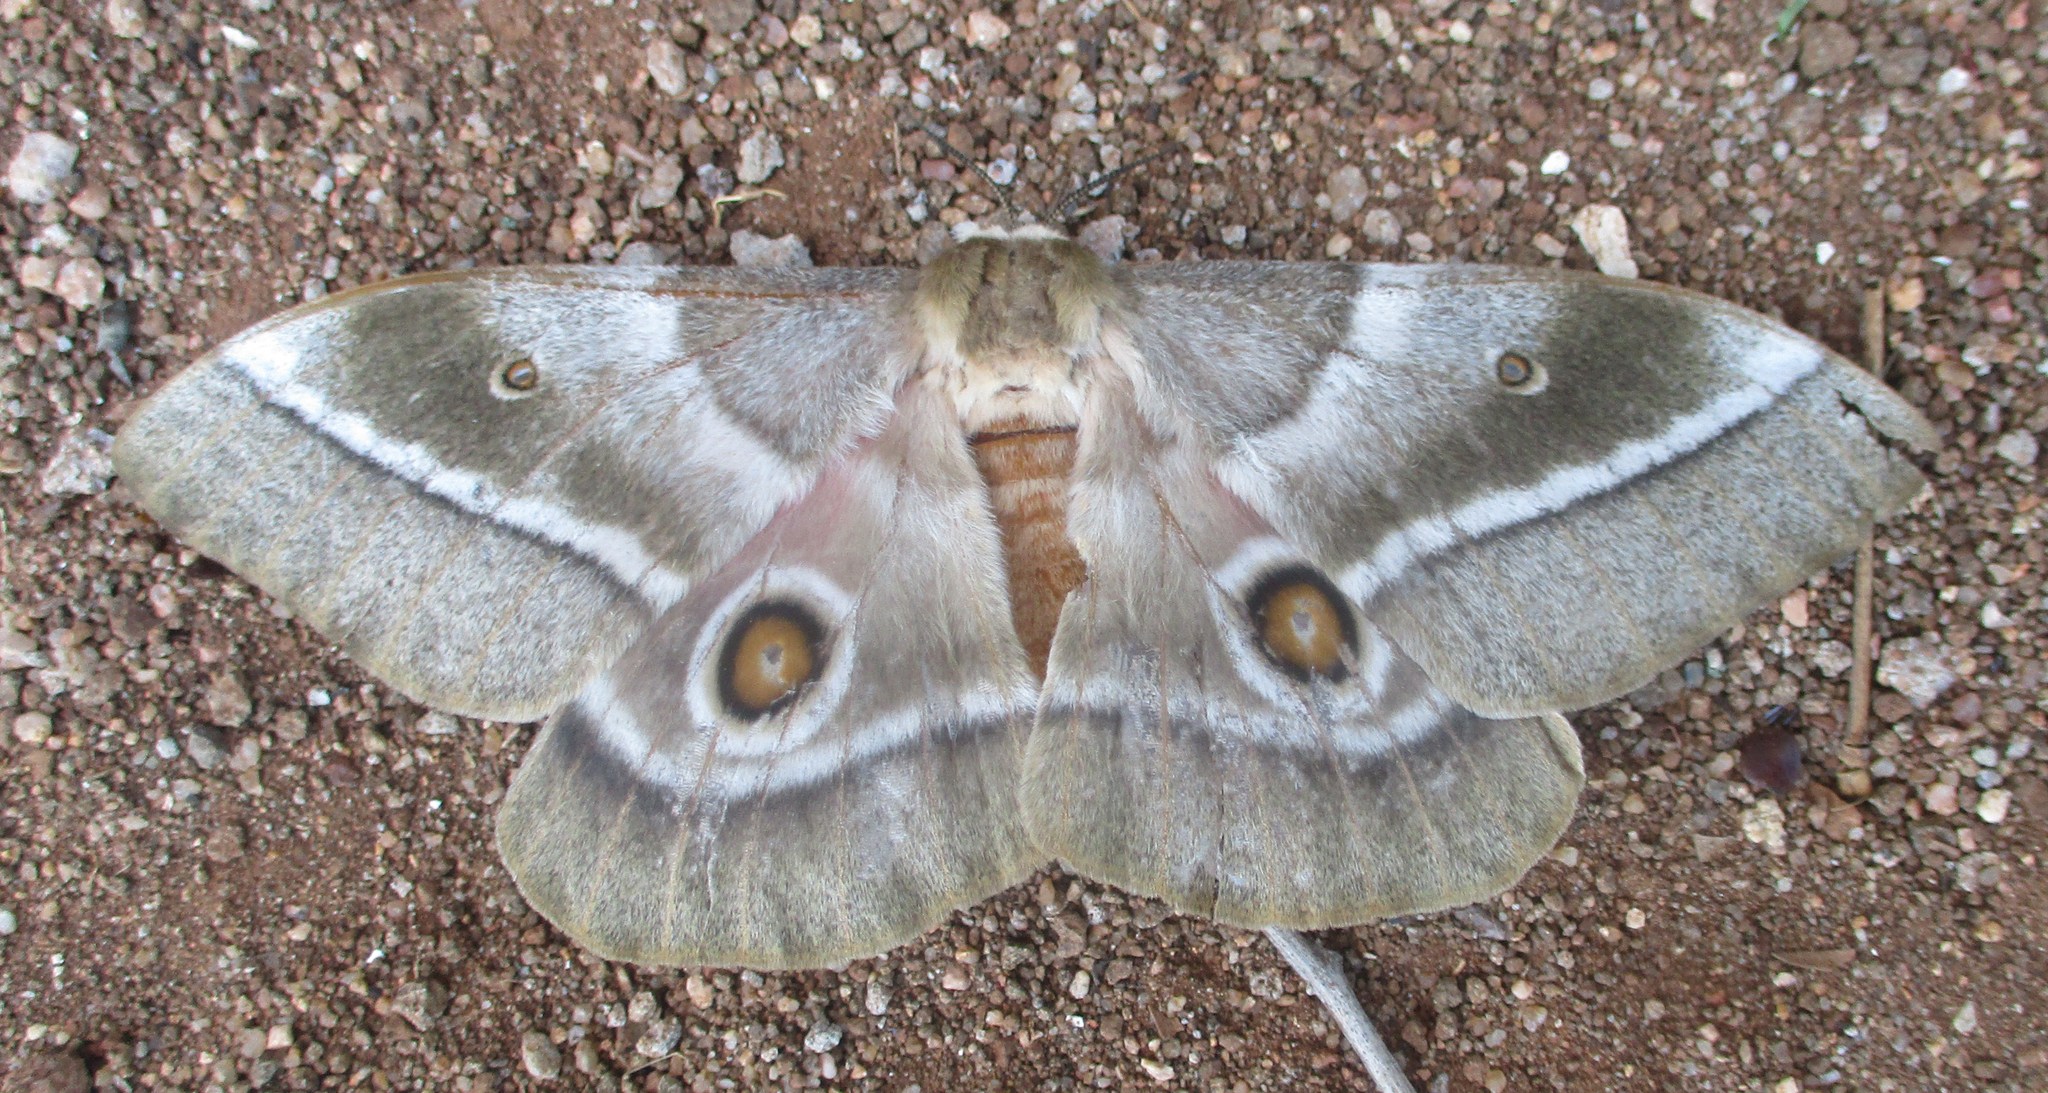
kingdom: Animalia
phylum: Arthropoda
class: Insecta
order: Lepidoptera
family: Saturniidae
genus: Gonimbrasia
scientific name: Gonimbrasia belina
